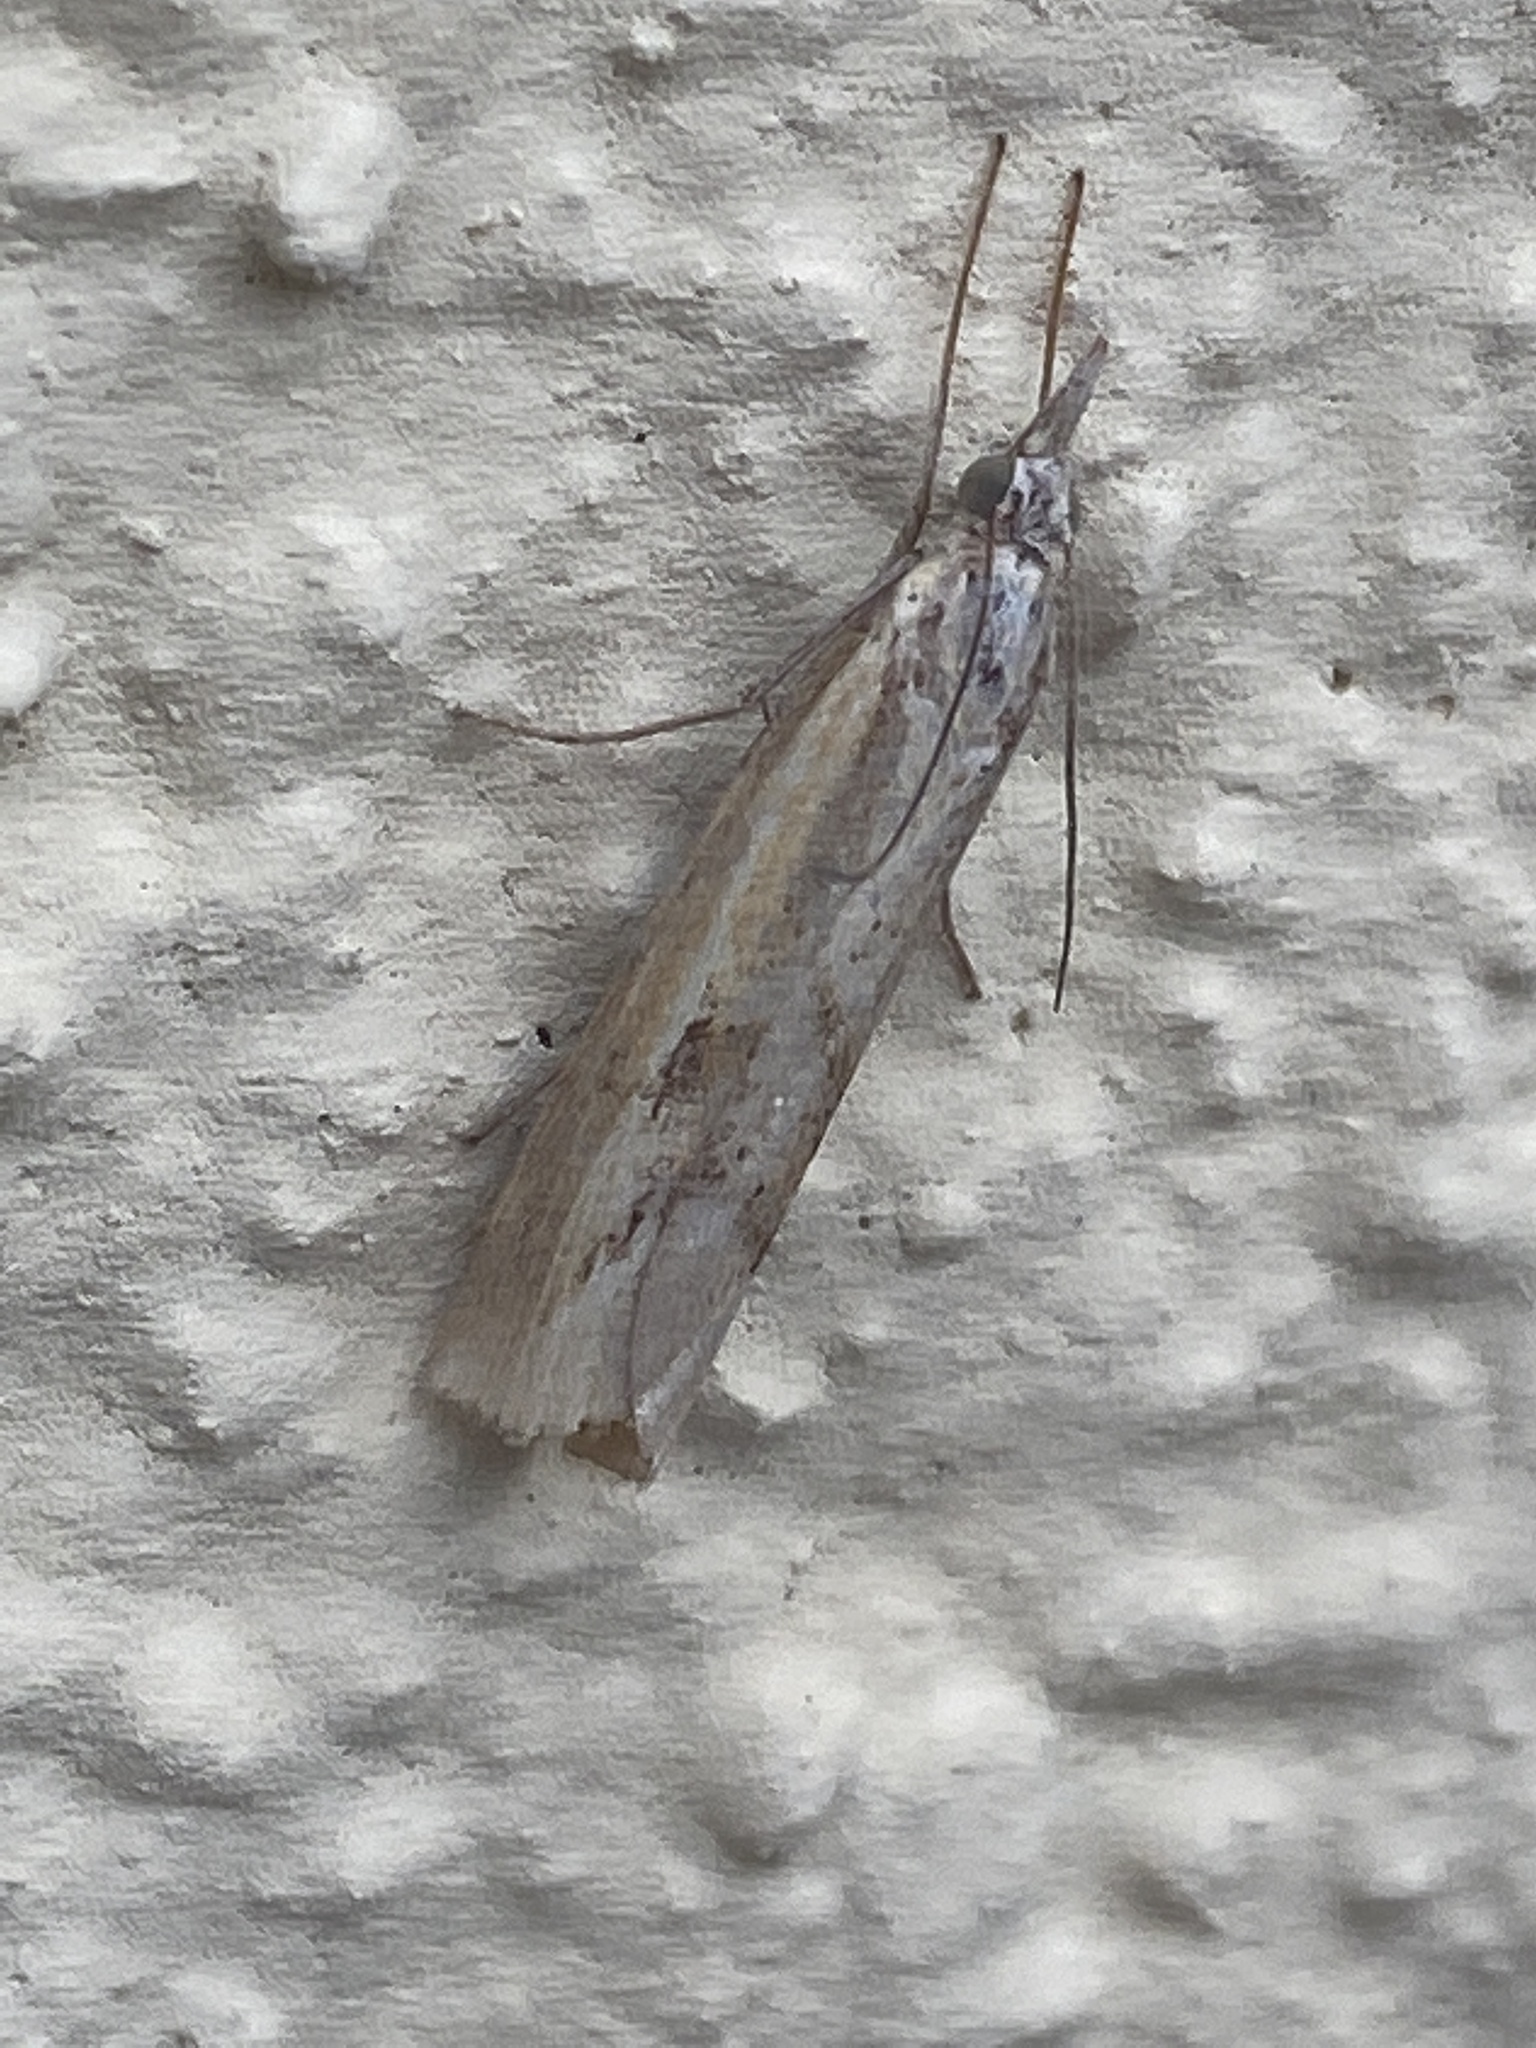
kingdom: Animalia
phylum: Arthropoda
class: Insecta
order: Lepidoptera
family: Crambidae
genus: Agriphila
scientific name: Agriphila inquinatella
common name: Barred grass-veneer
